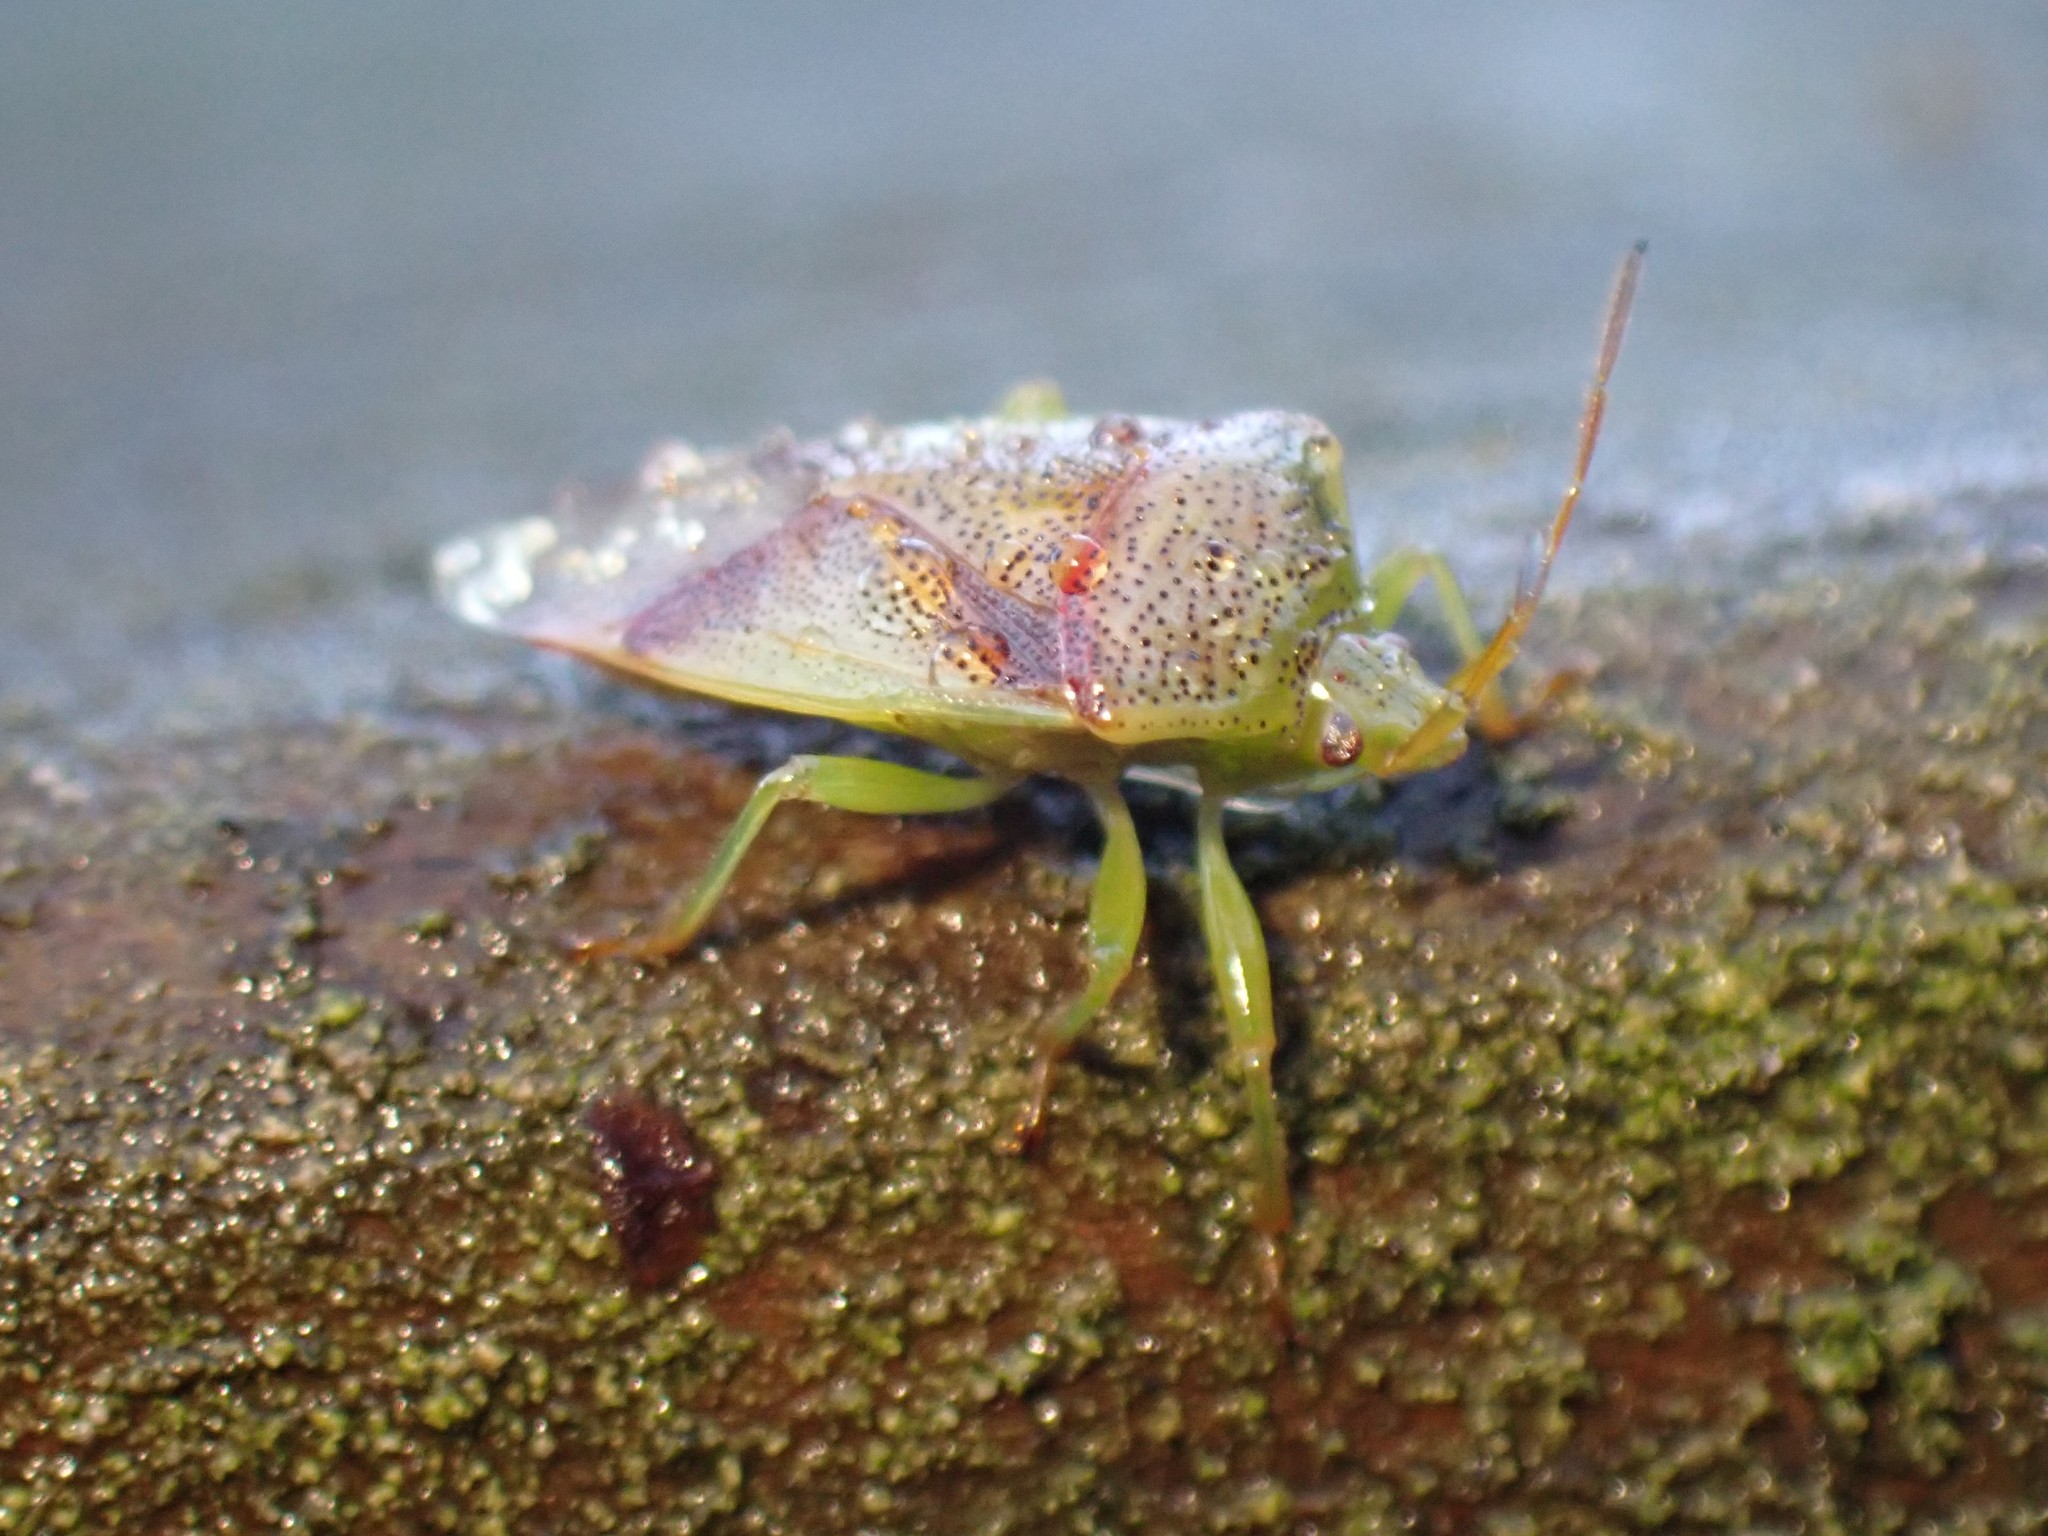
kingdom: Animalia
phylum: Arthropoda
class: Insecta
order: Hemiptera
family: Acanthosomatidae
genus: Elasmostethus
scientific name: Elasmostethus cruciatus
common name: Red-cross shield bug
